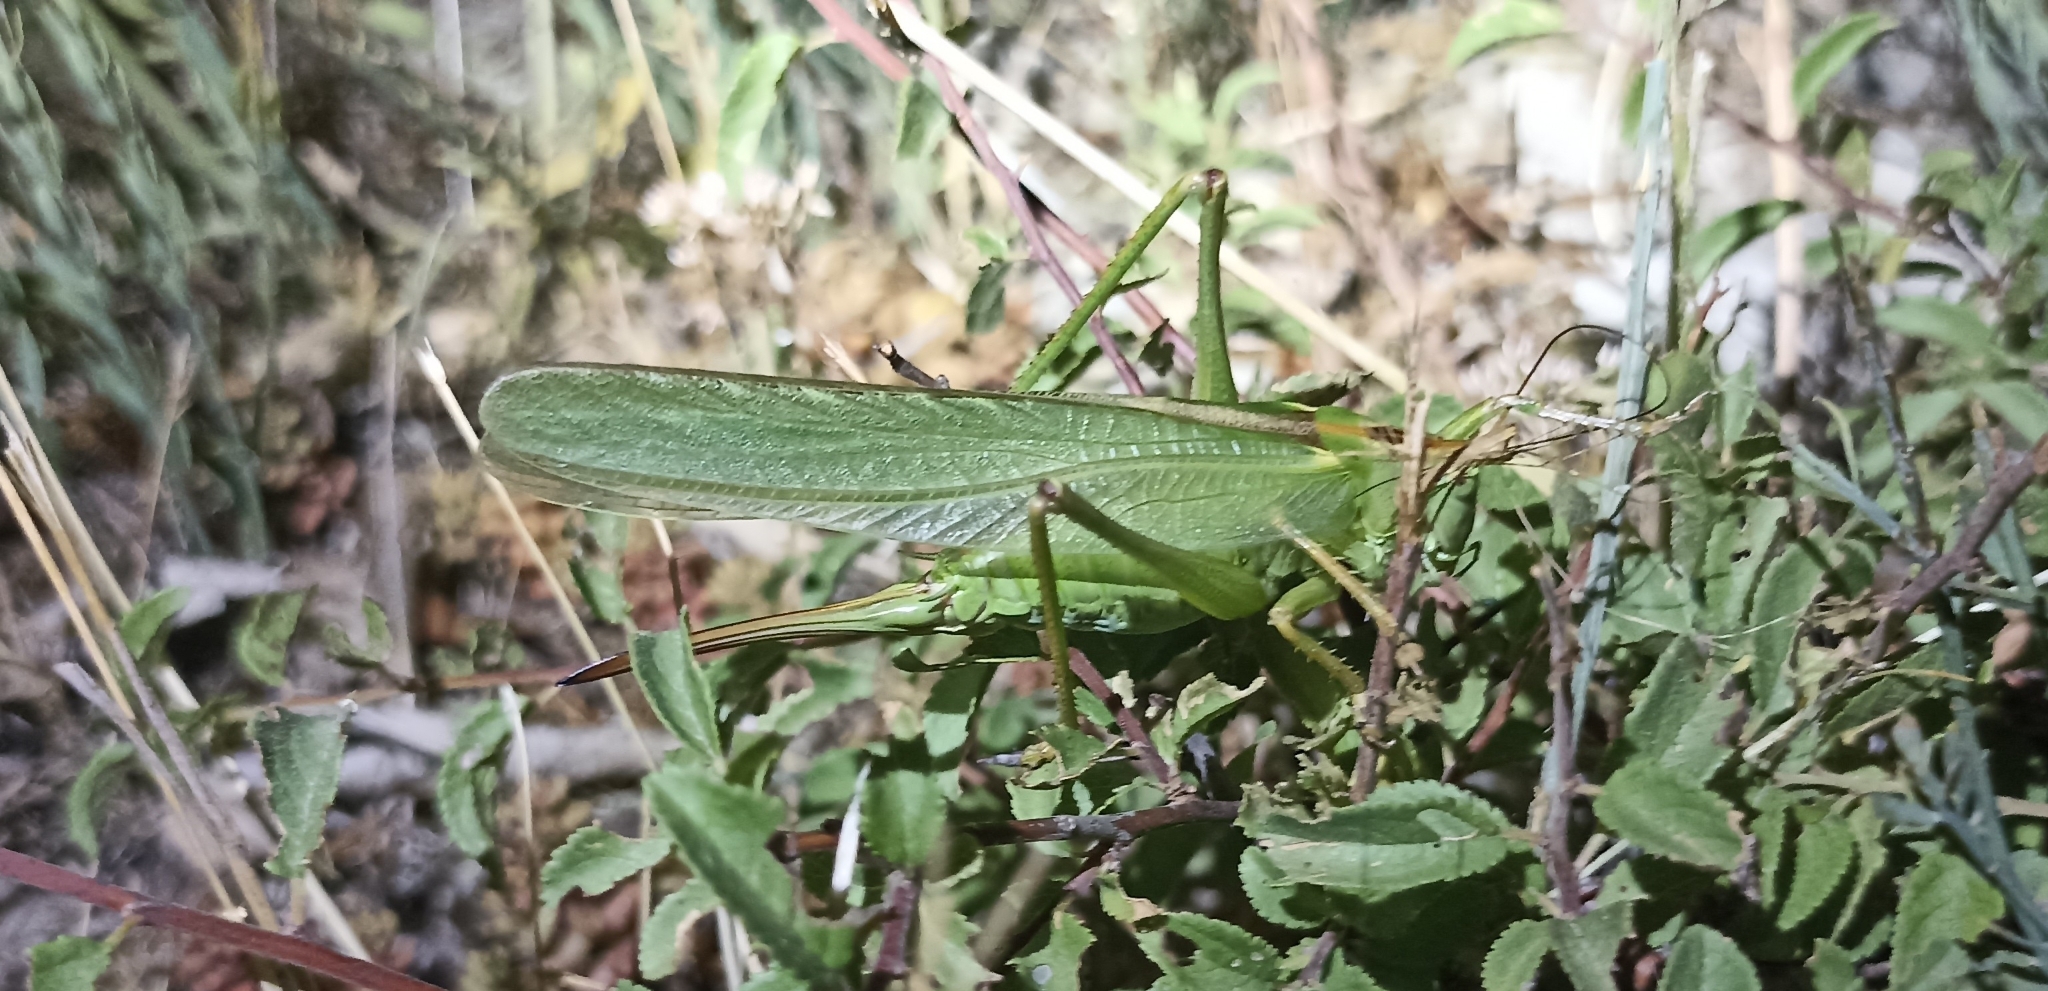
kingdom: Animalia
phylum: Arthropoda
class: Insecta
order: Orthoptera
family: Tettigoniidae
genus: Tettigonia
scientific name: Tettigonia viridissima
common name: Great green bush-cricket
